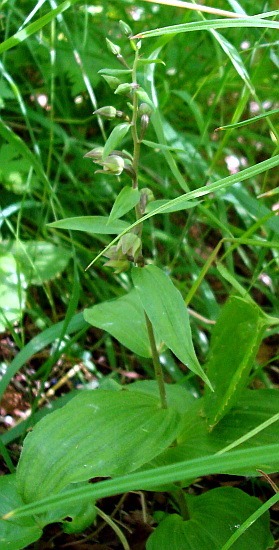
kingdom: Plantae
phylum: Tracheophyta
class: Liliopsida
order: Asparagales
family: Orchidaceae
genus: Epipactis
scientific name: Epipactis papillosa
